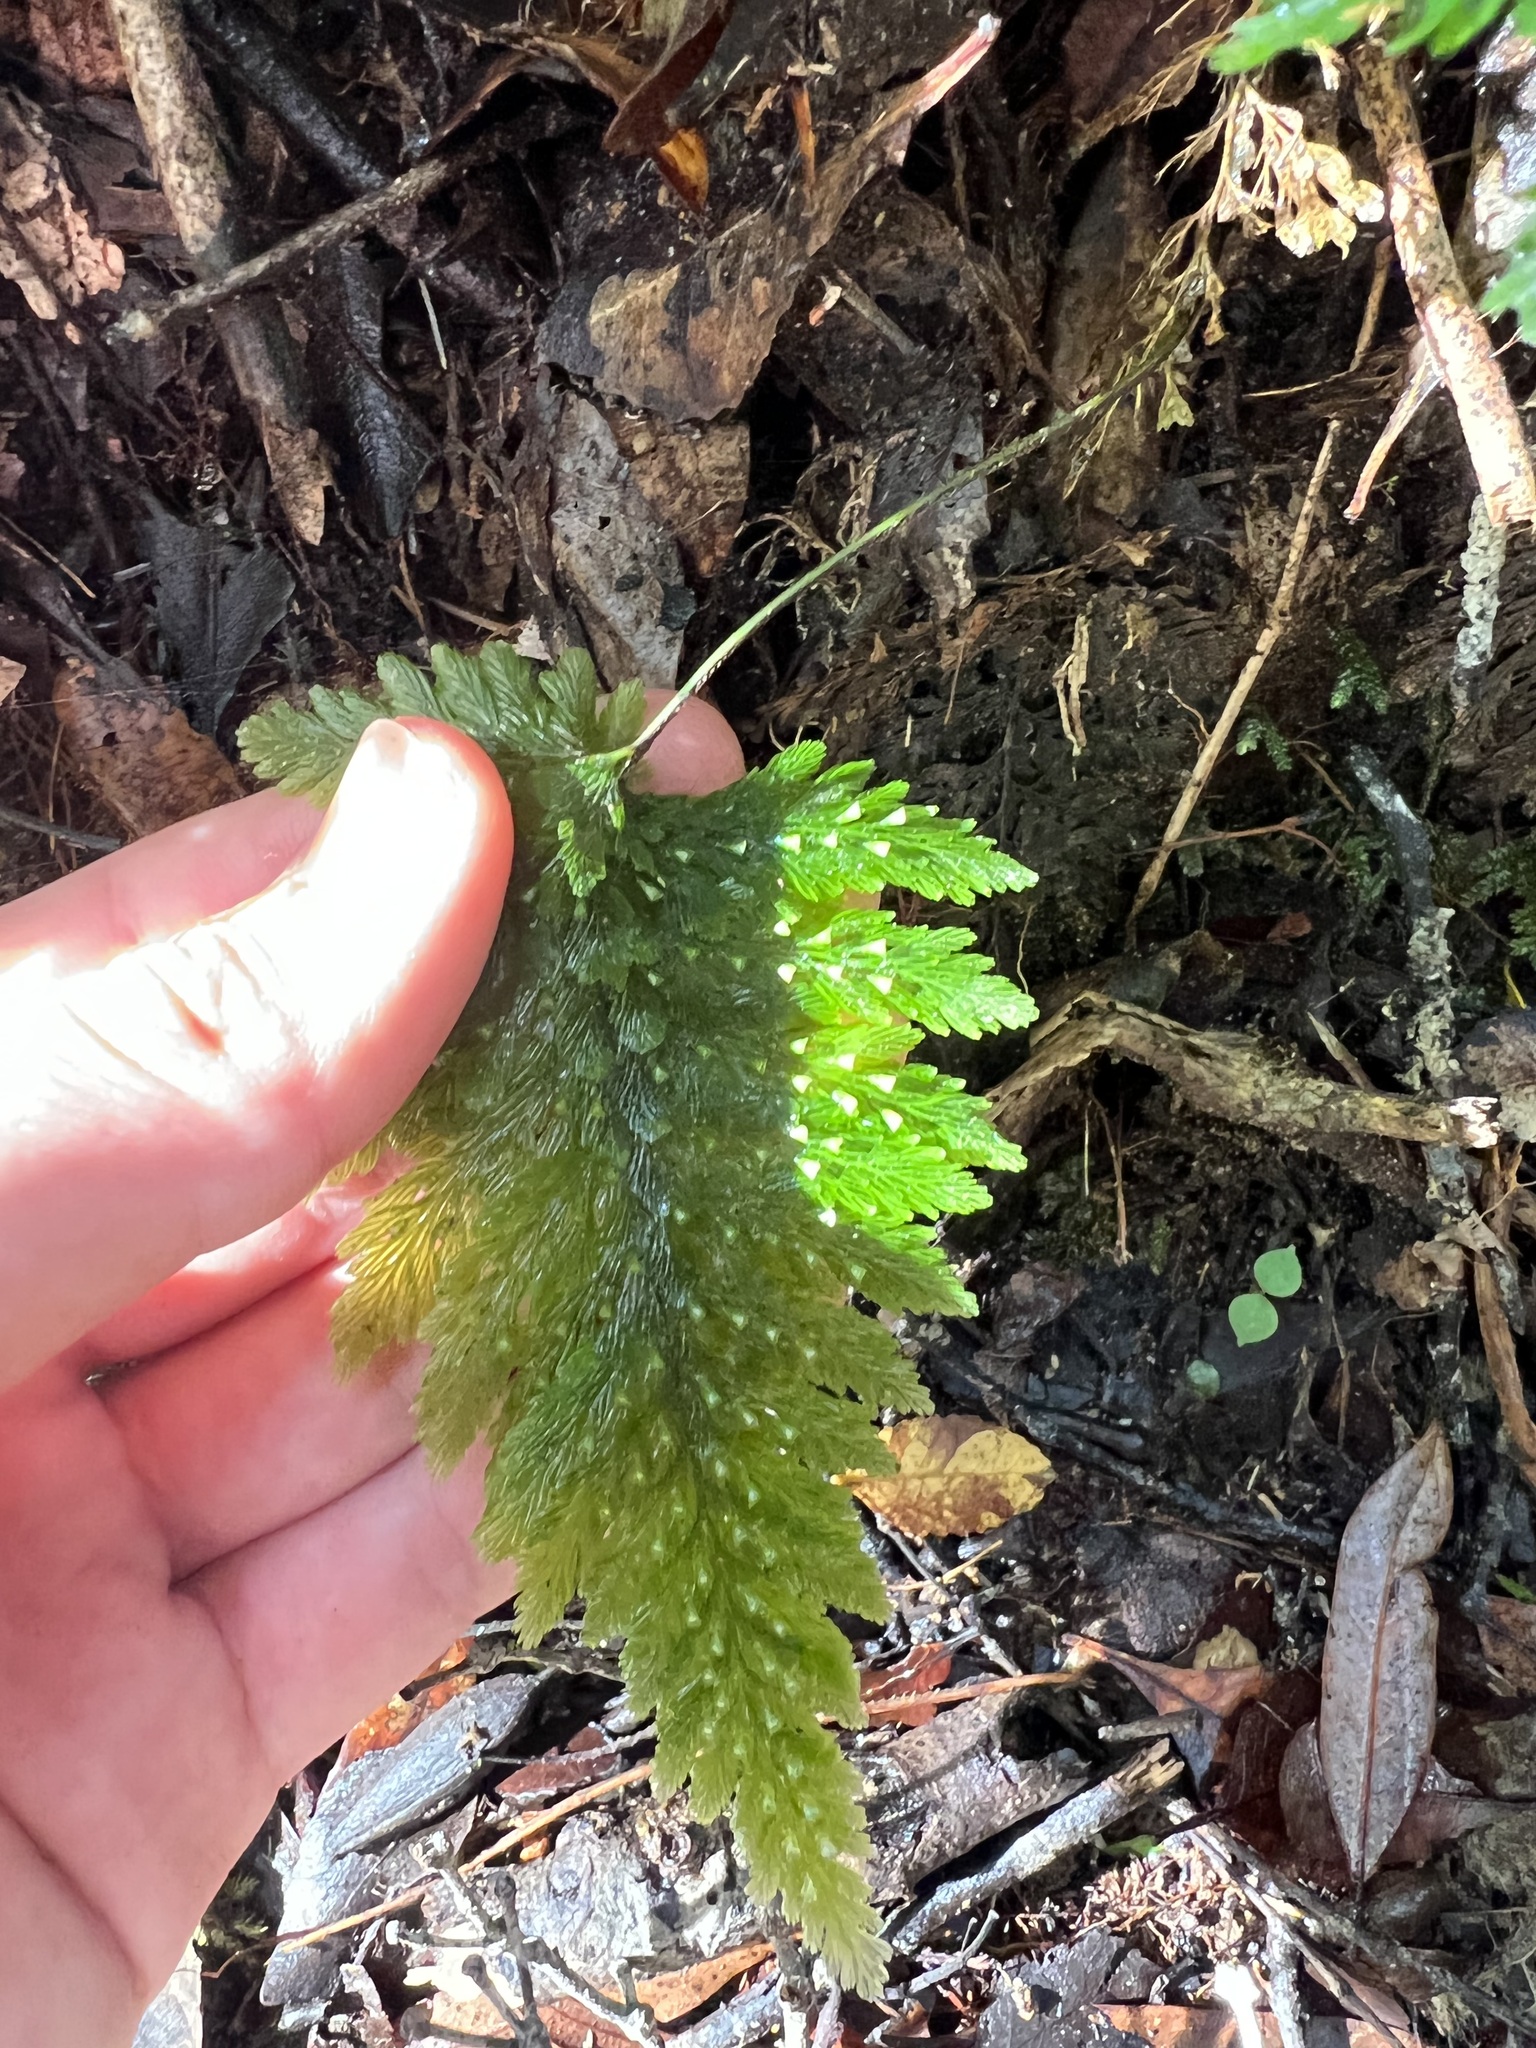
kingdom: Plantae
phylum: Tracheophyta
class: Polypodiopsida
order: Hymenophyllales
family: Hymenophyllaceae
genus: Abrodictyum
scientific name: Abrodictyum elongatum
